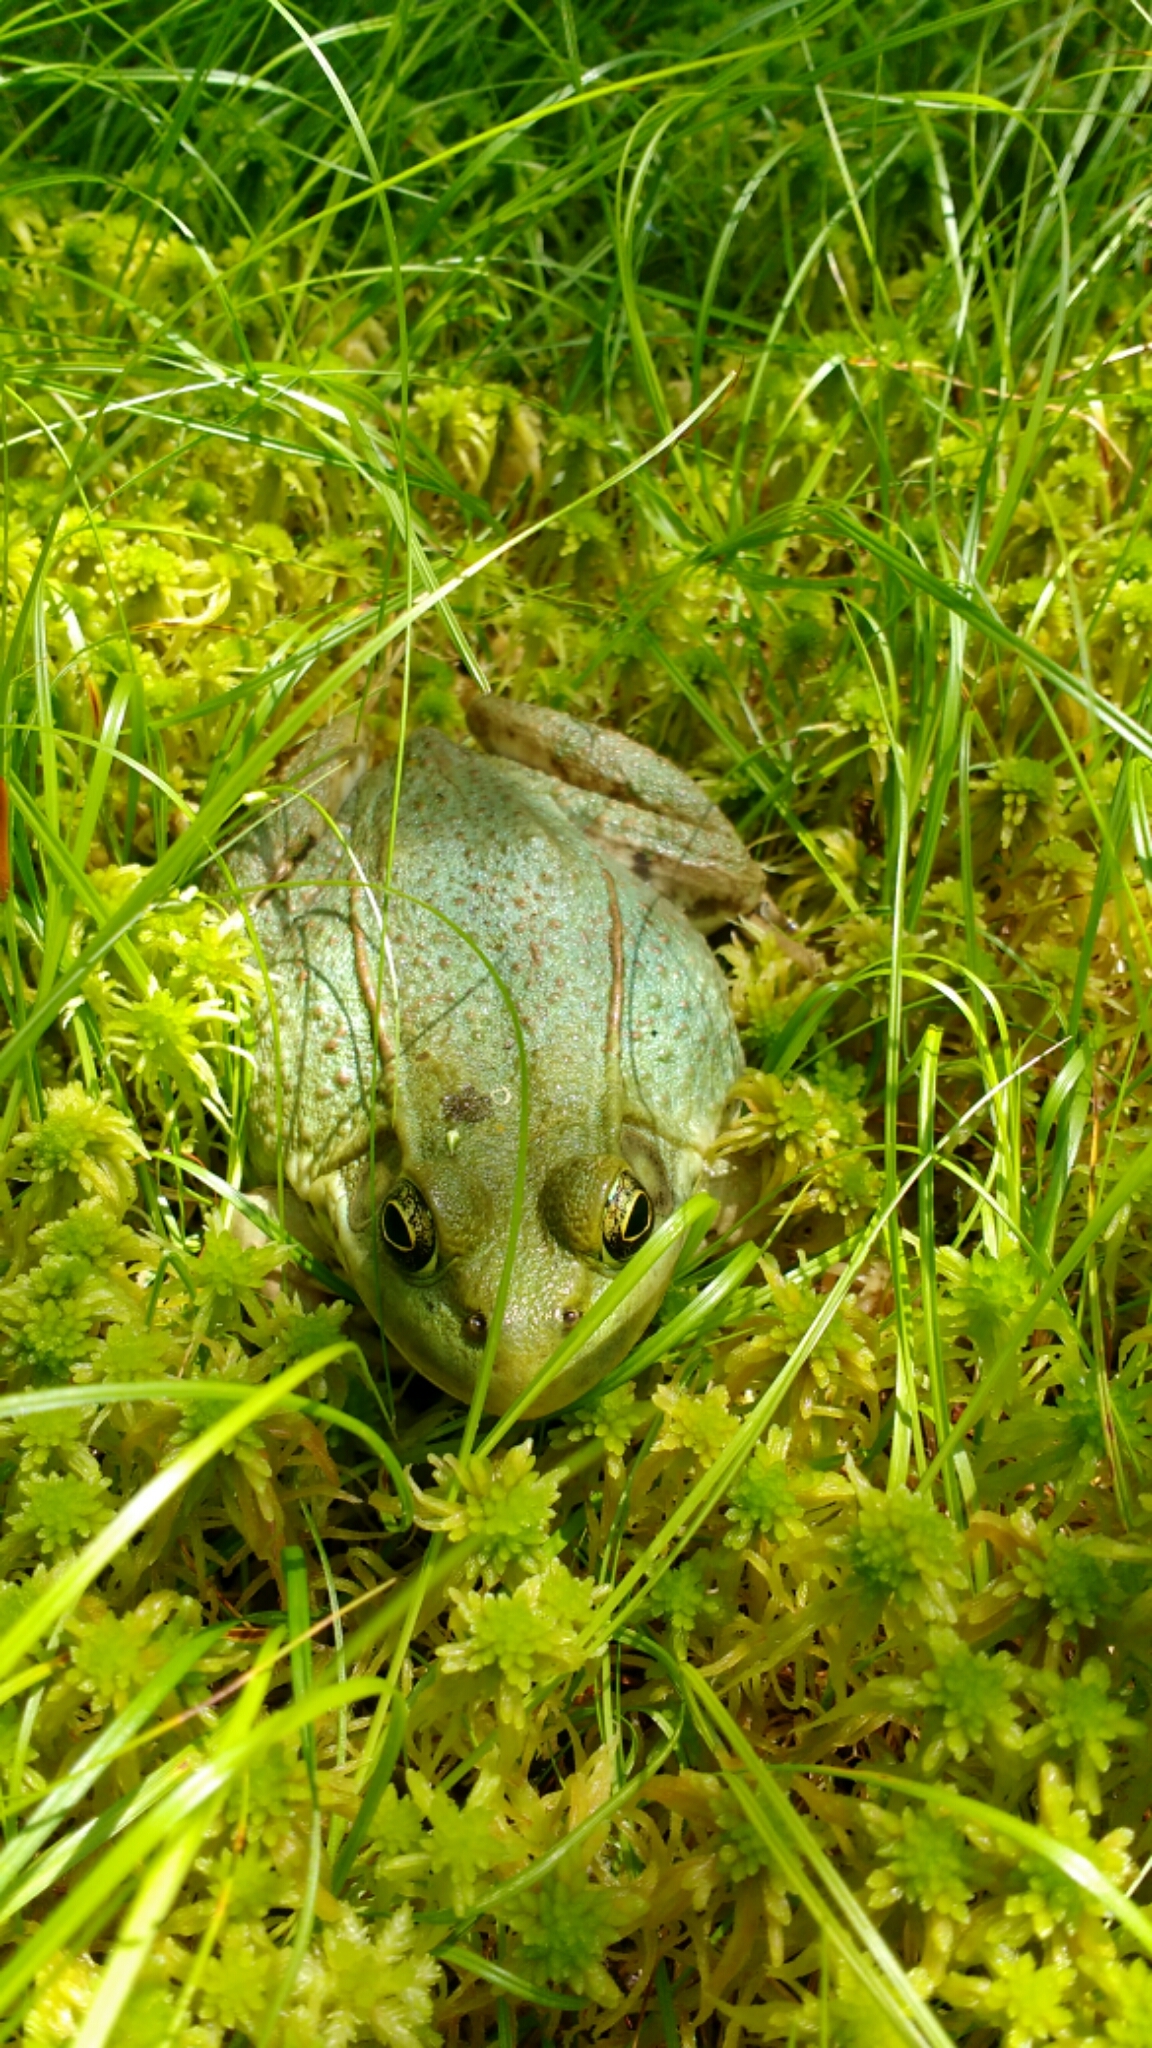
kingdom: Animalia
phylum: Chordata
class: Amphibia
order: Anura
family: Ranidae
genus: Lithobates
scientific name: Lithobates clamitans
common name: Green frog
